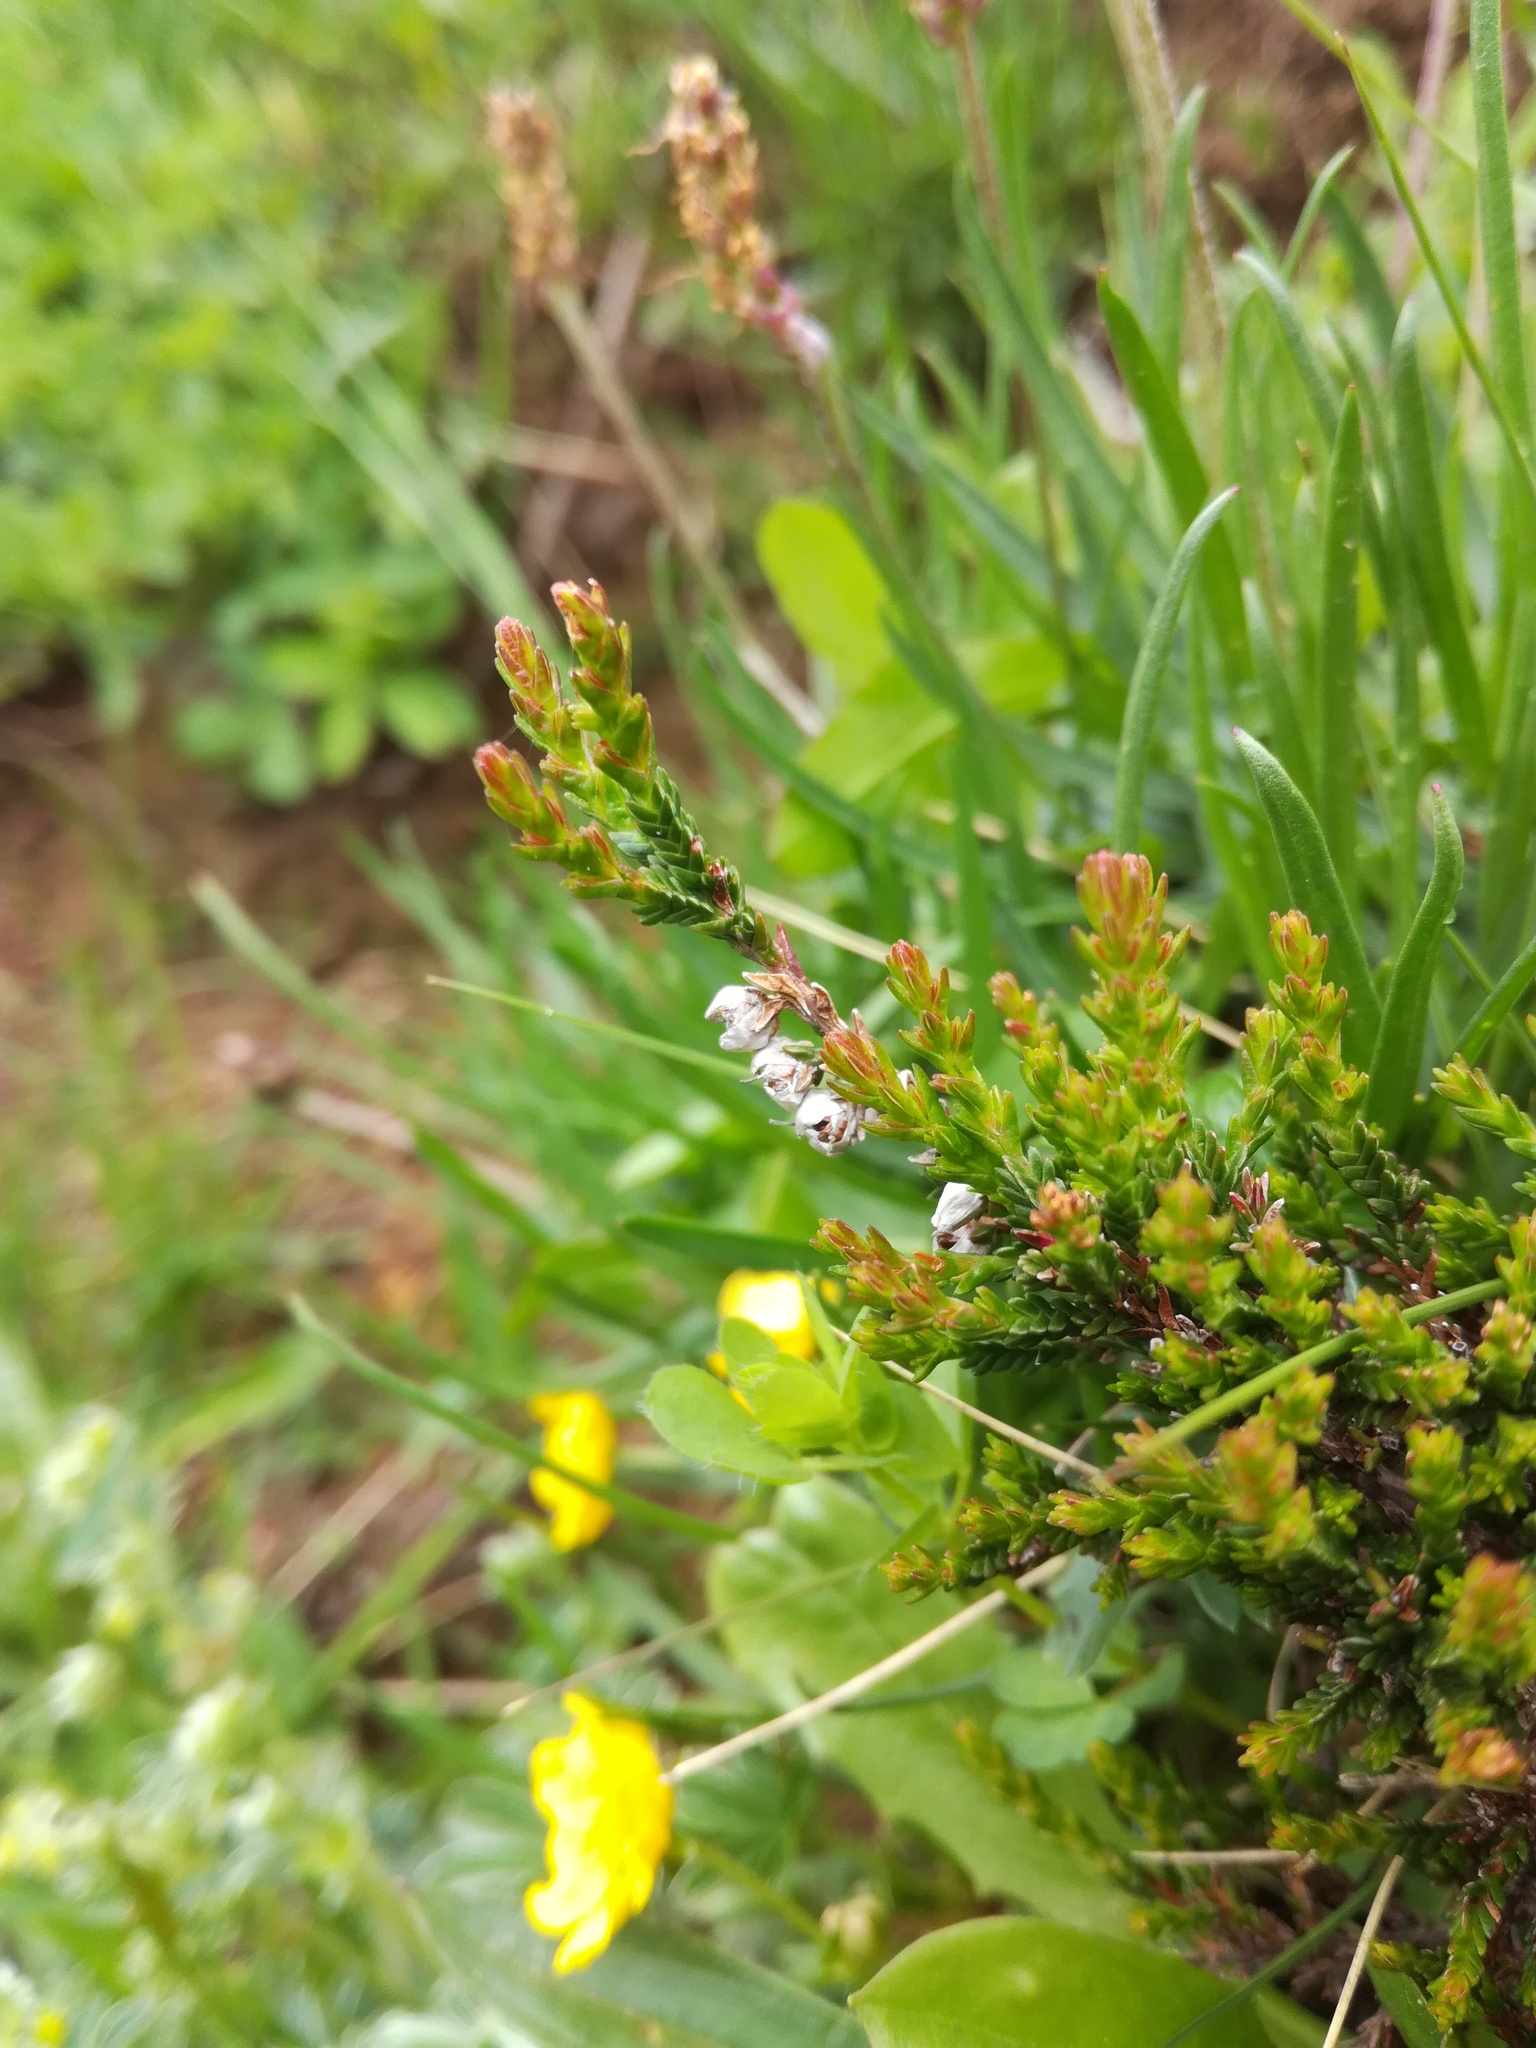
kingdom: Plantae
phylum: Tracheophyta
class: Magnoliopsida
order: Ericales
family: Ericaceae
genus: Calluna
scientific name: Calluna vulgaris
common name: Heather
